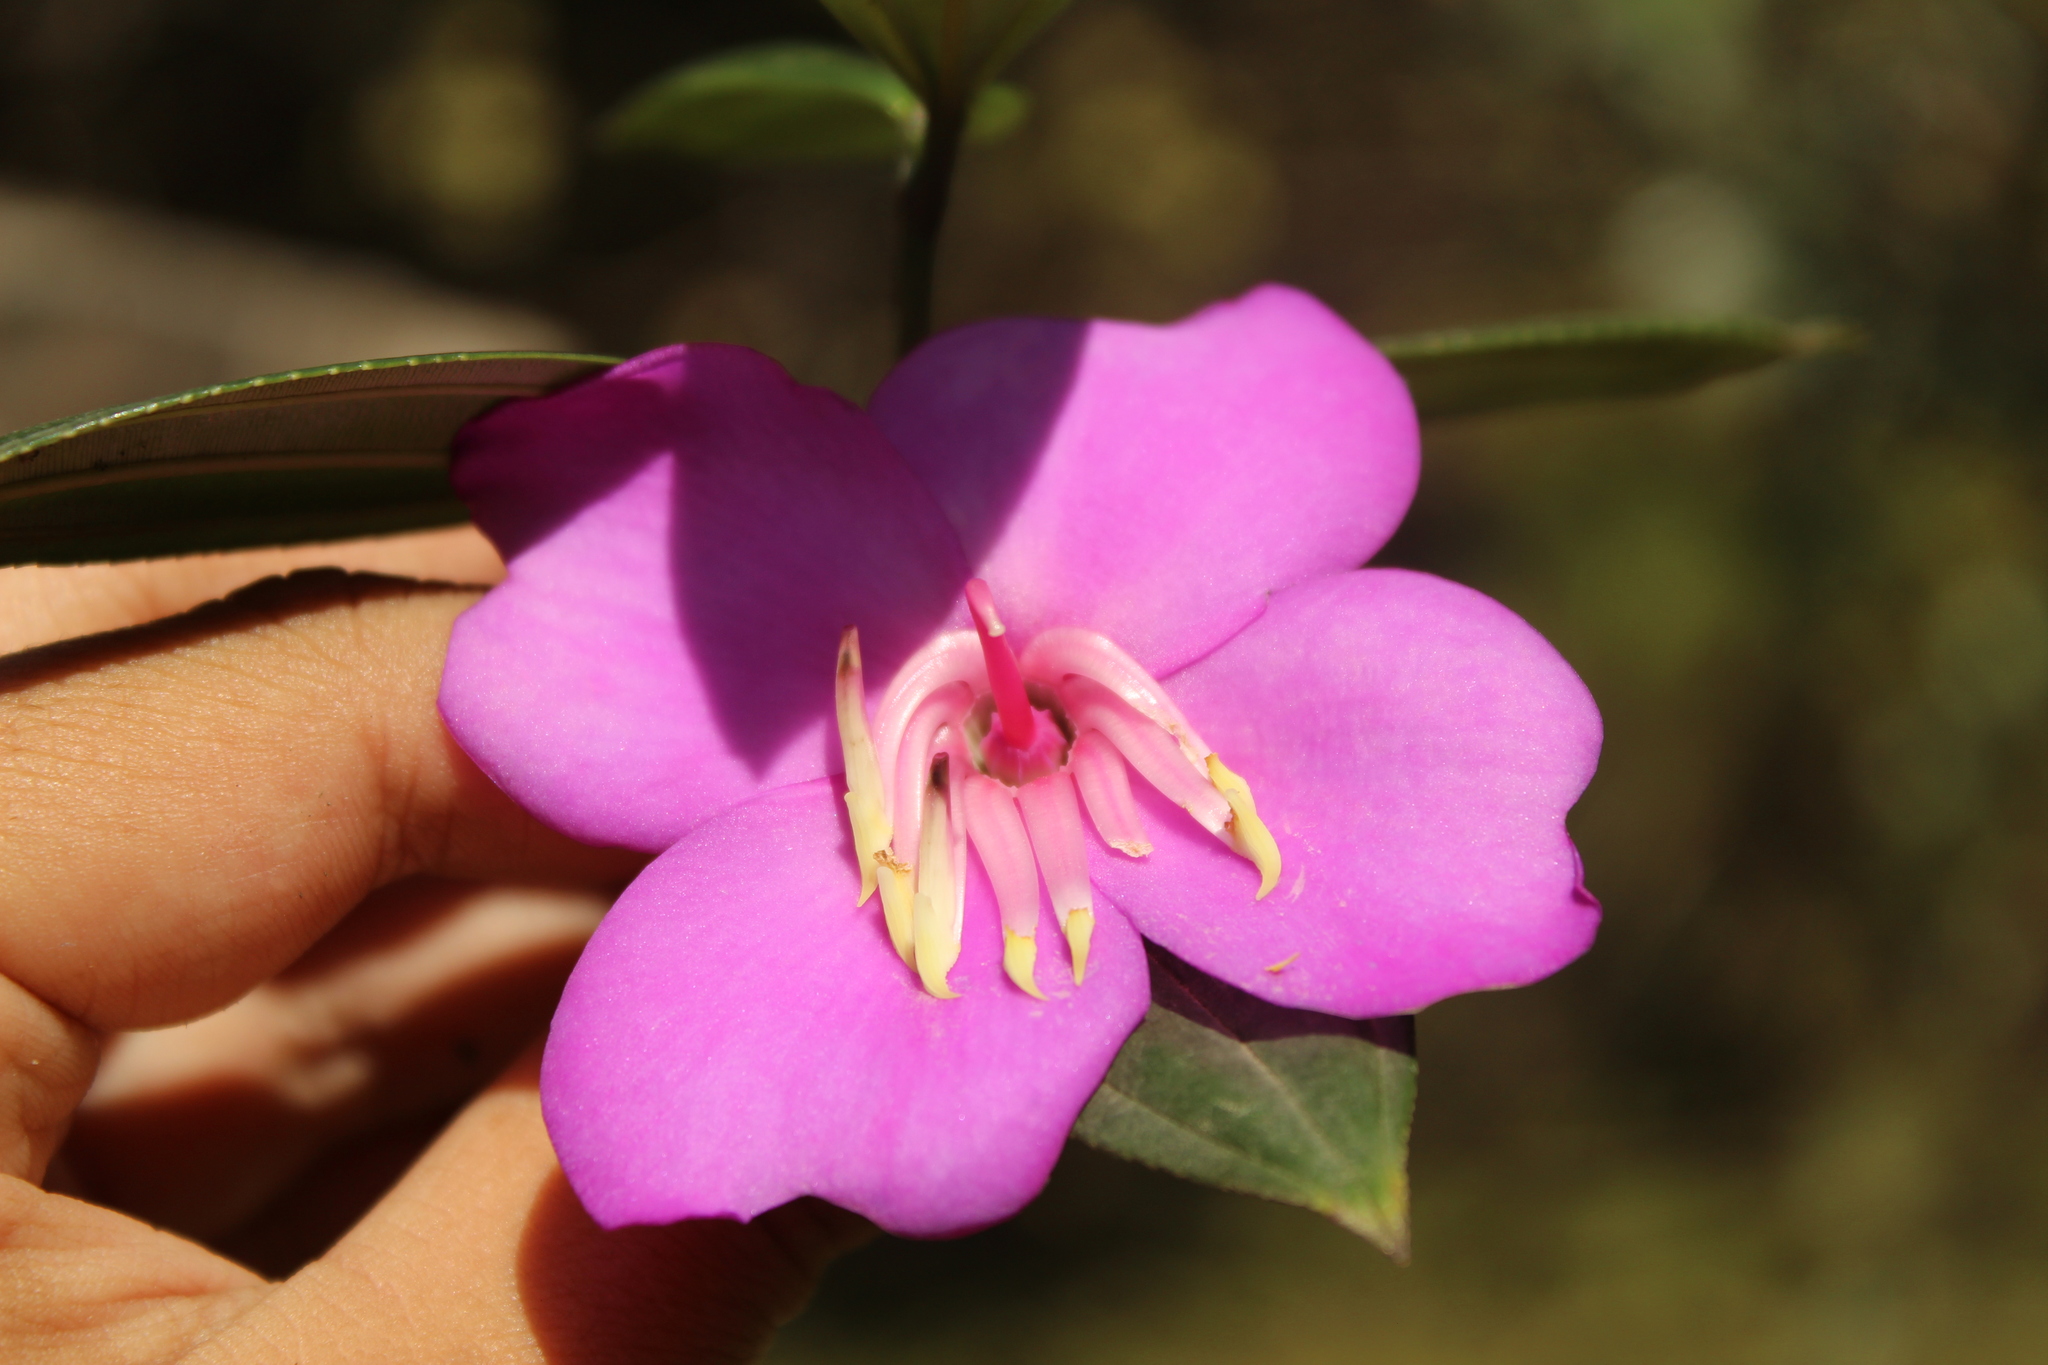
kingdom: Plantae
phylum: Tracheophyta
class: Magnoliopsida
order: Myrtales
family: Melastomataceae
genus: Meriania
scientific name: Meriania speciosa
